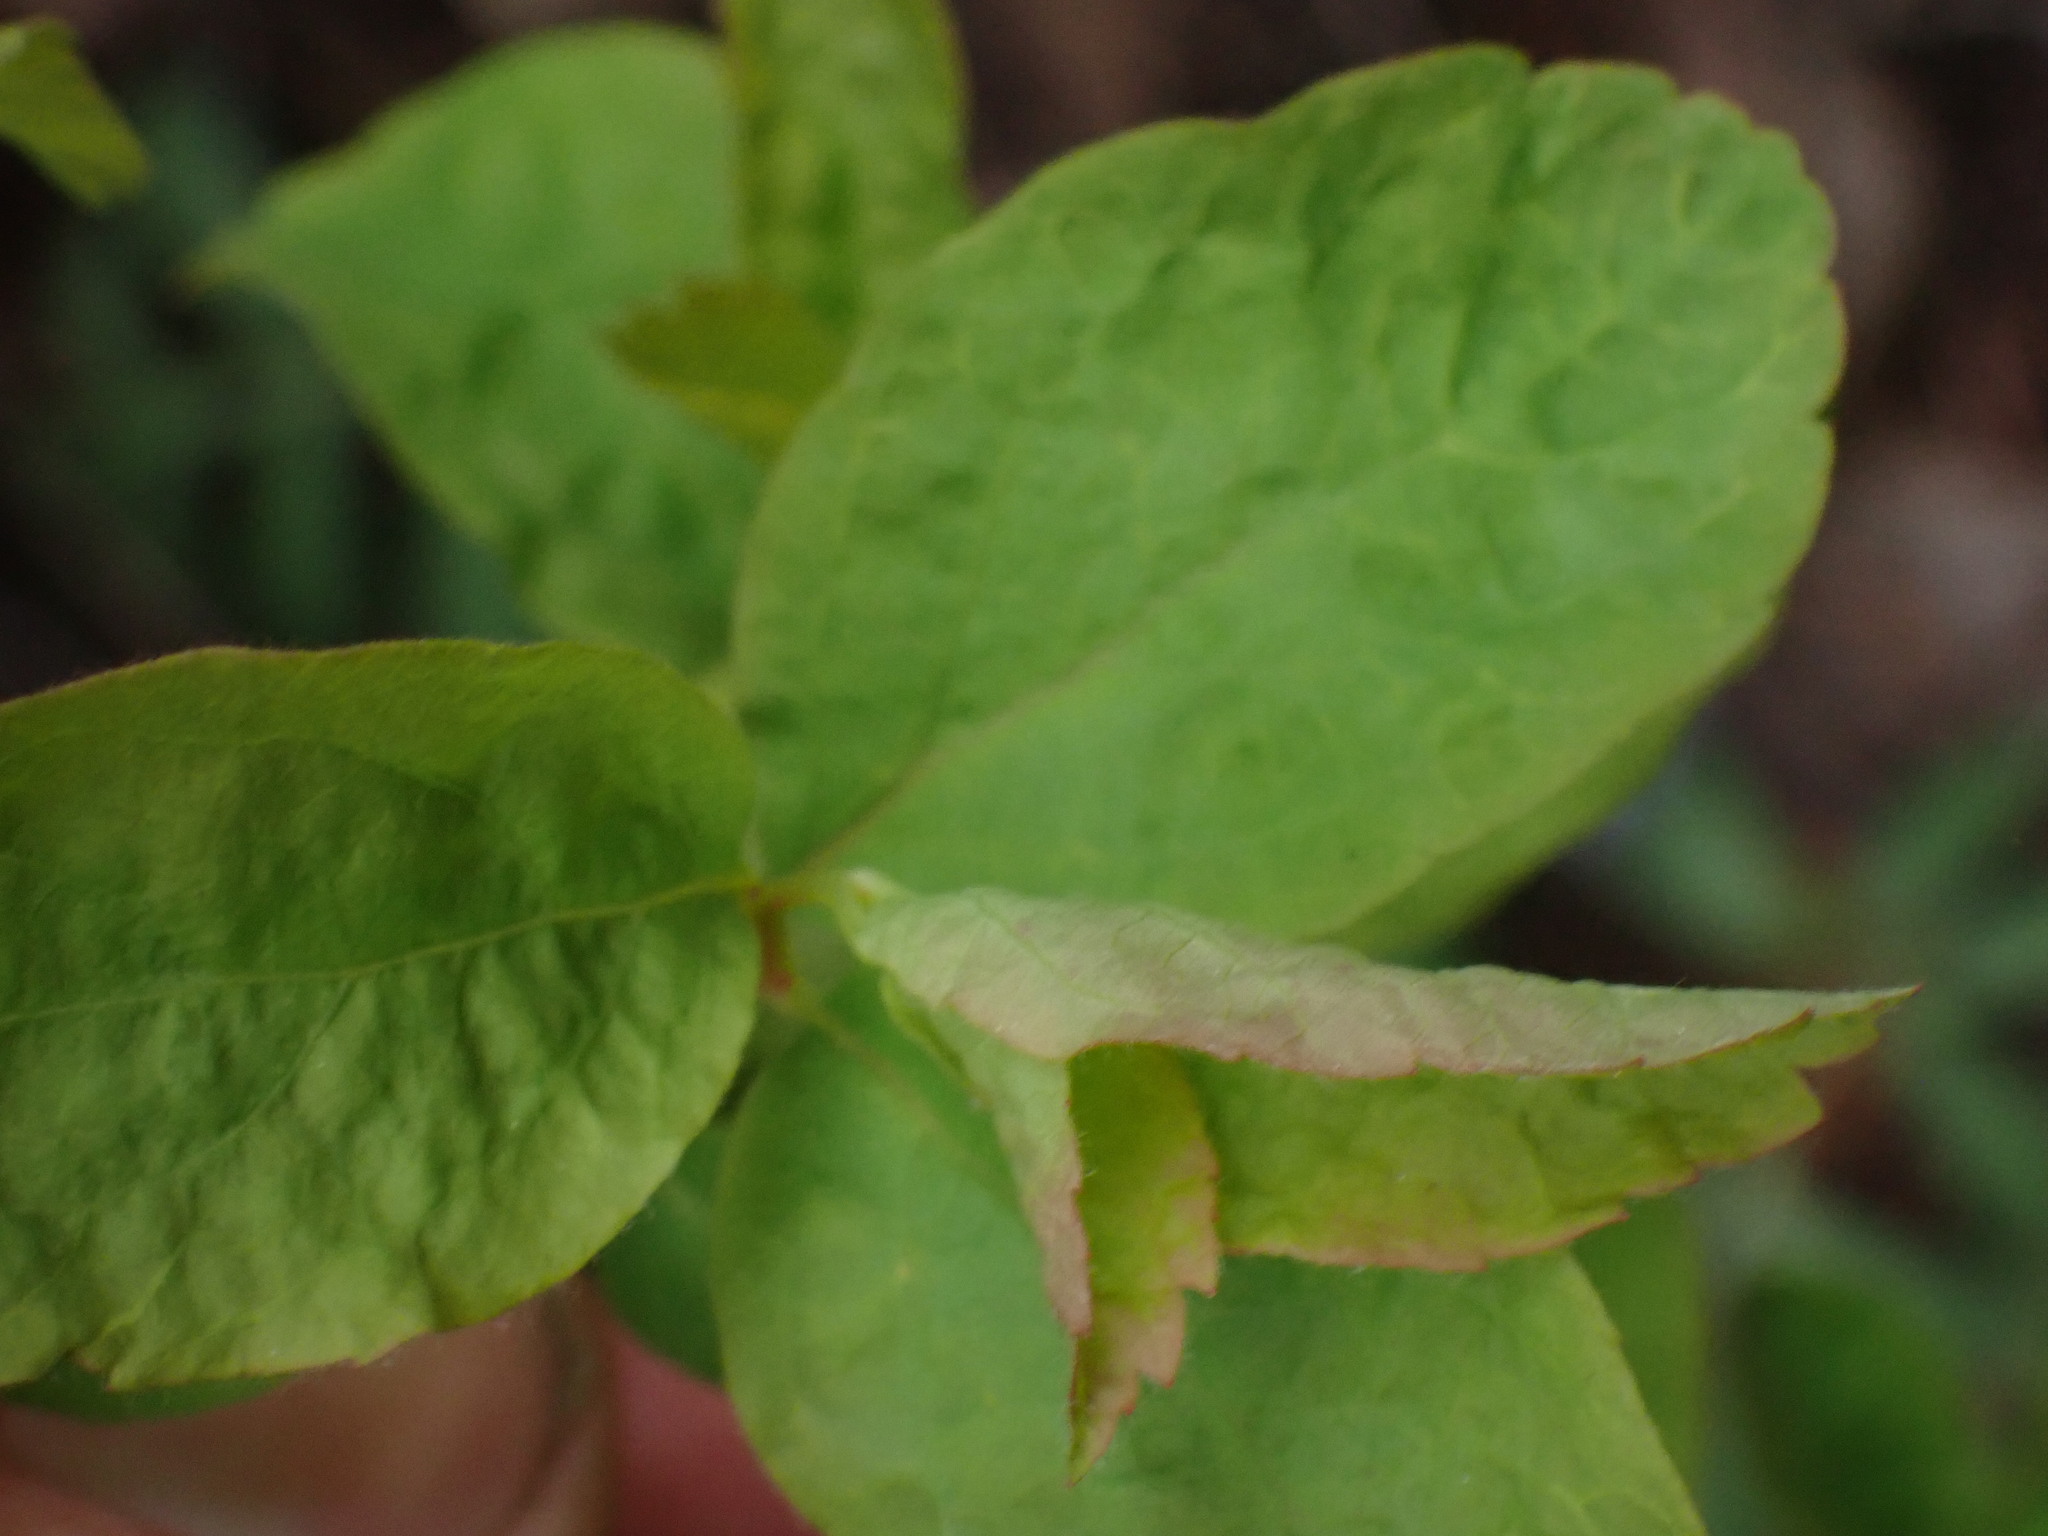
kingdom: Plantae
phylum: Tracheophyta
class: Magnoliopsida
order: Rosales
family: Rosaceae
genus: Spiraea
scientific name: Spiraea lucida
